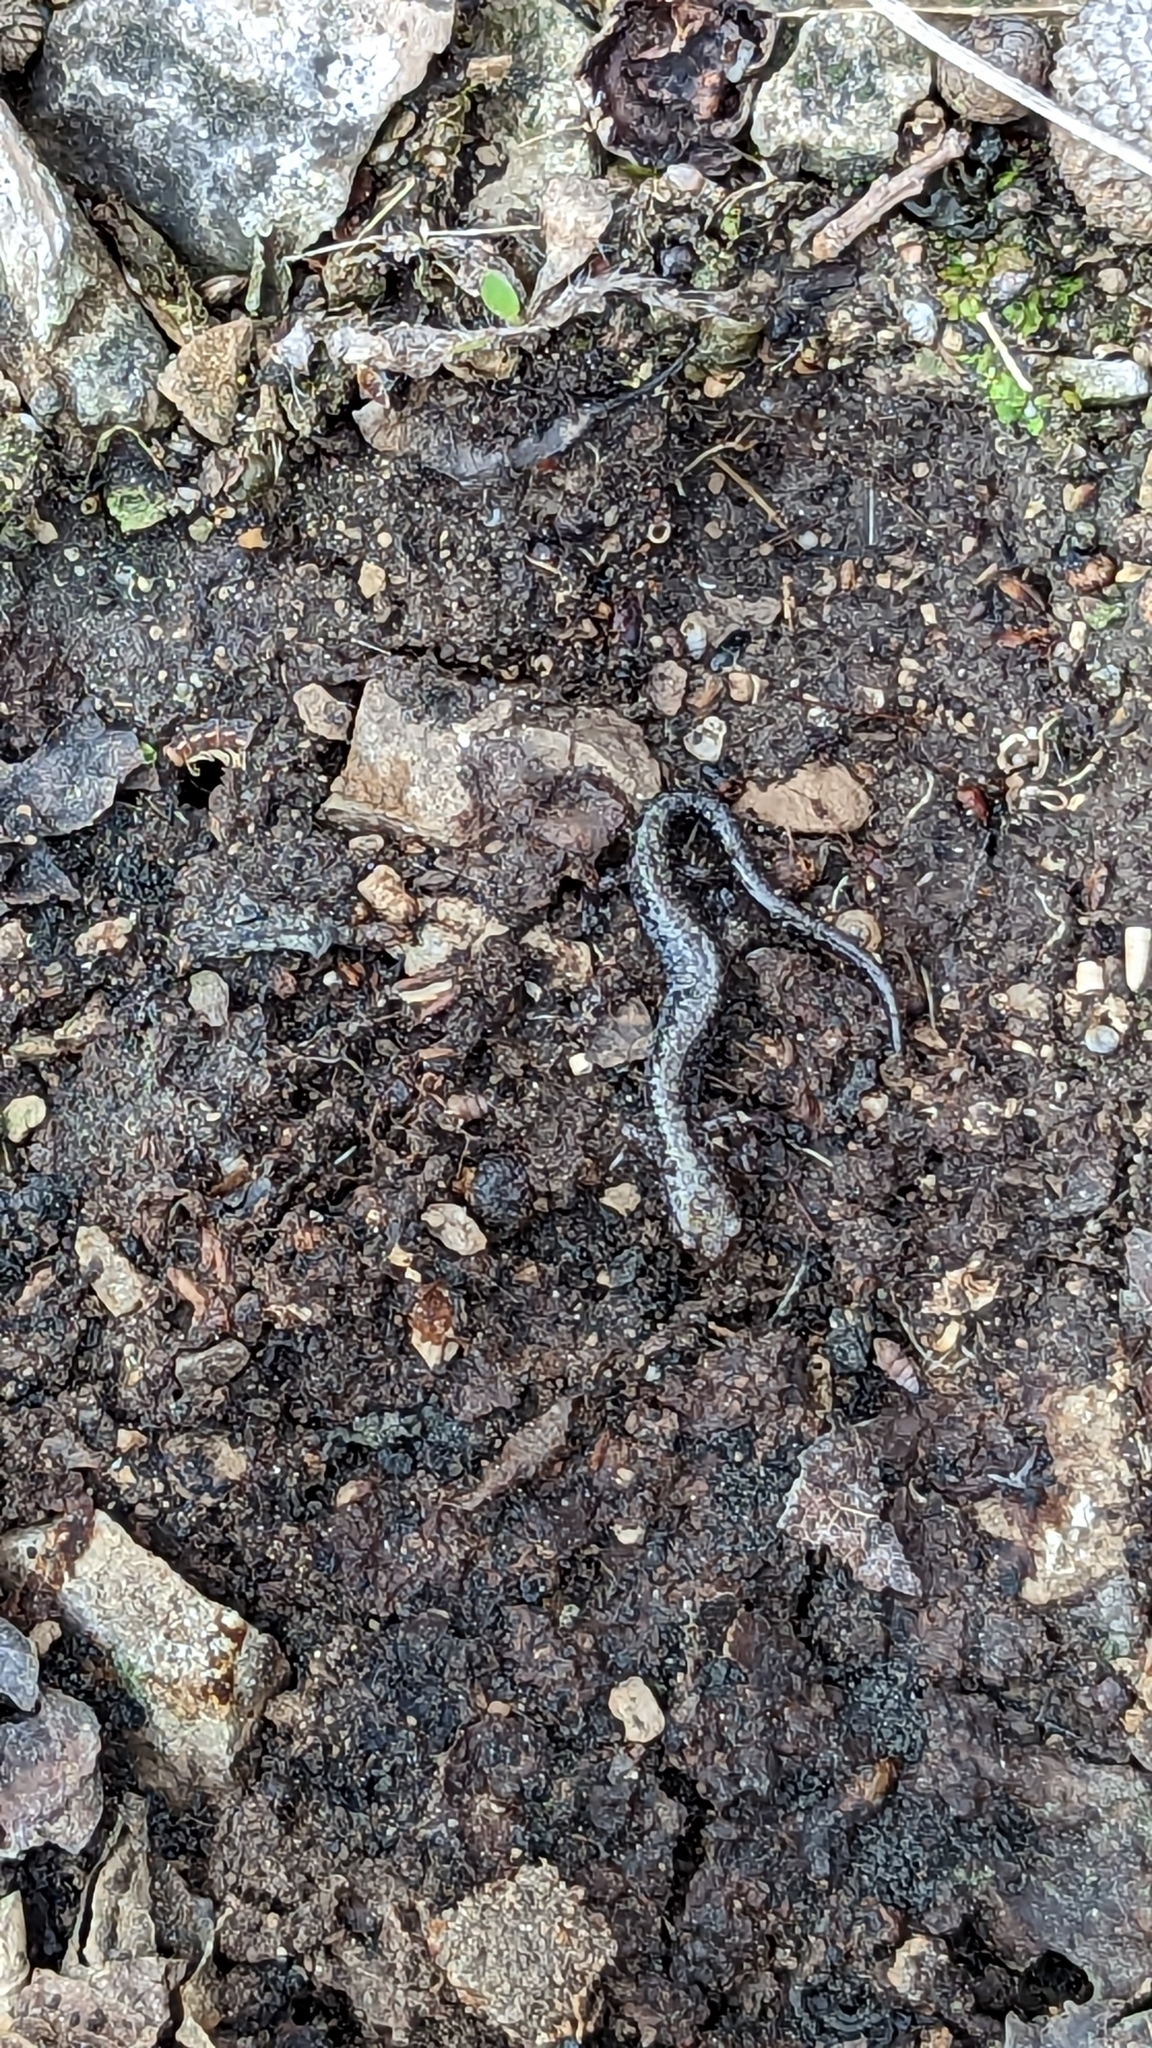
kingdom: Animalia
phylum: Chordata
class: Amphibia
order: Caudata
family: Plethodontidae
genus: Plethodon
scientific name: Plethodon cinereus
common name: Redback salamander
